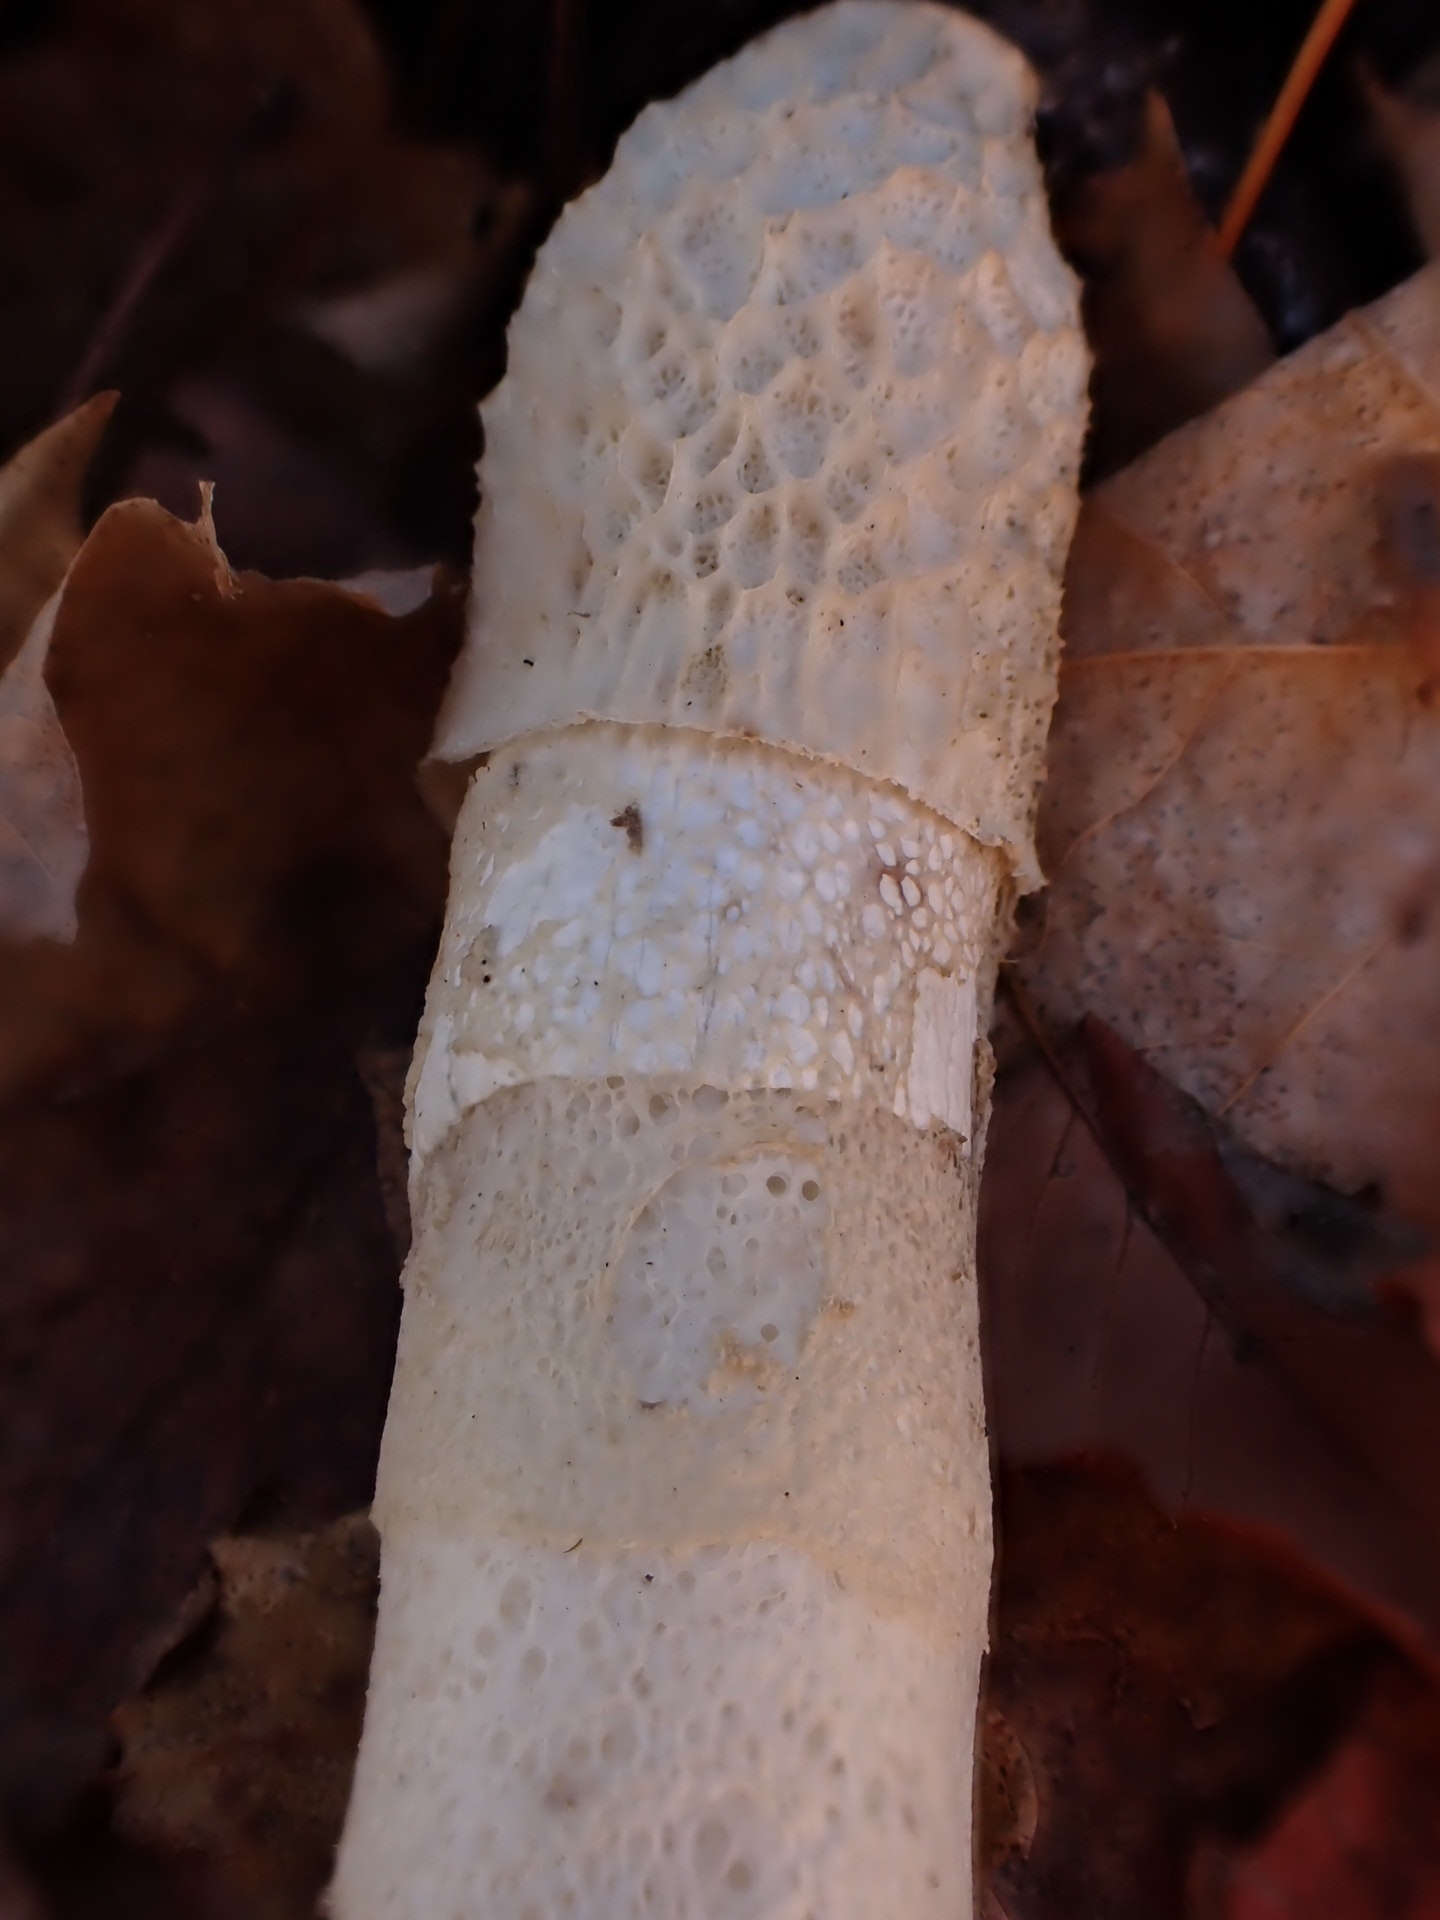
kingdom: Fungi
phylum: Basidiomycota
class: Agaricomycetes
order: Phallales
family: Phallaceae
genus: Phallus
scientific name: Phallus indusiatus
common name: Bridal veil stinkhorn
